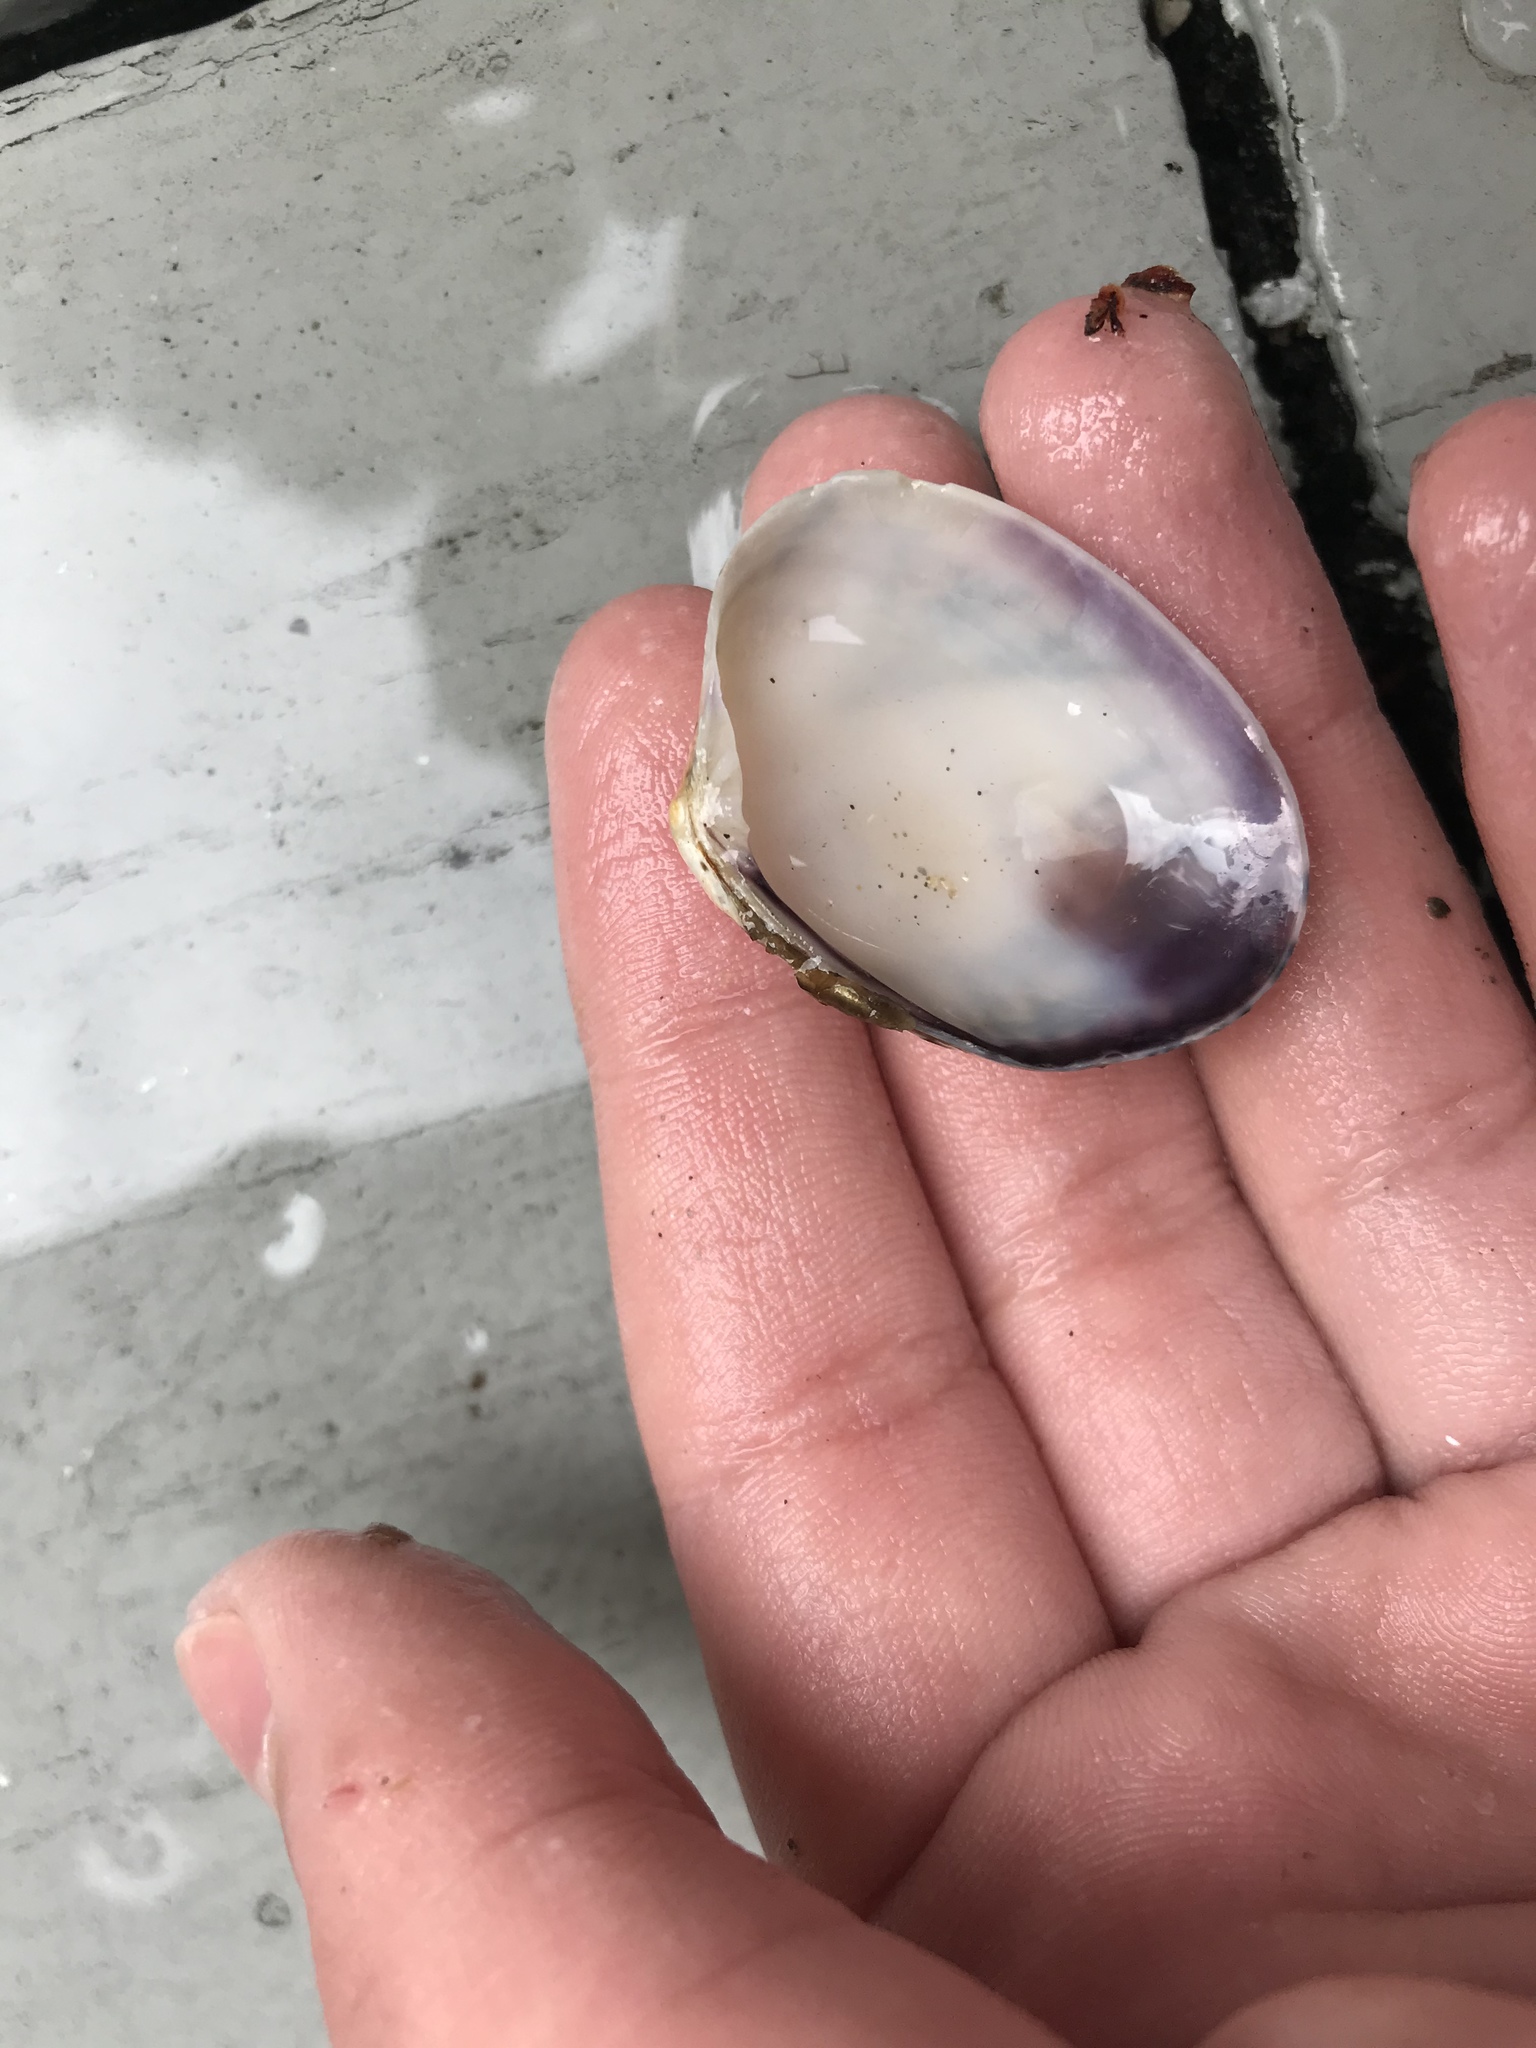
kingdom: Animalia
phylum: Mollusca
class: Bivalvia
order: Venerida
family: Veneridae
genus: Ruditapes
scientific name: Ruditapes philippinarum
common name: Manila clam
